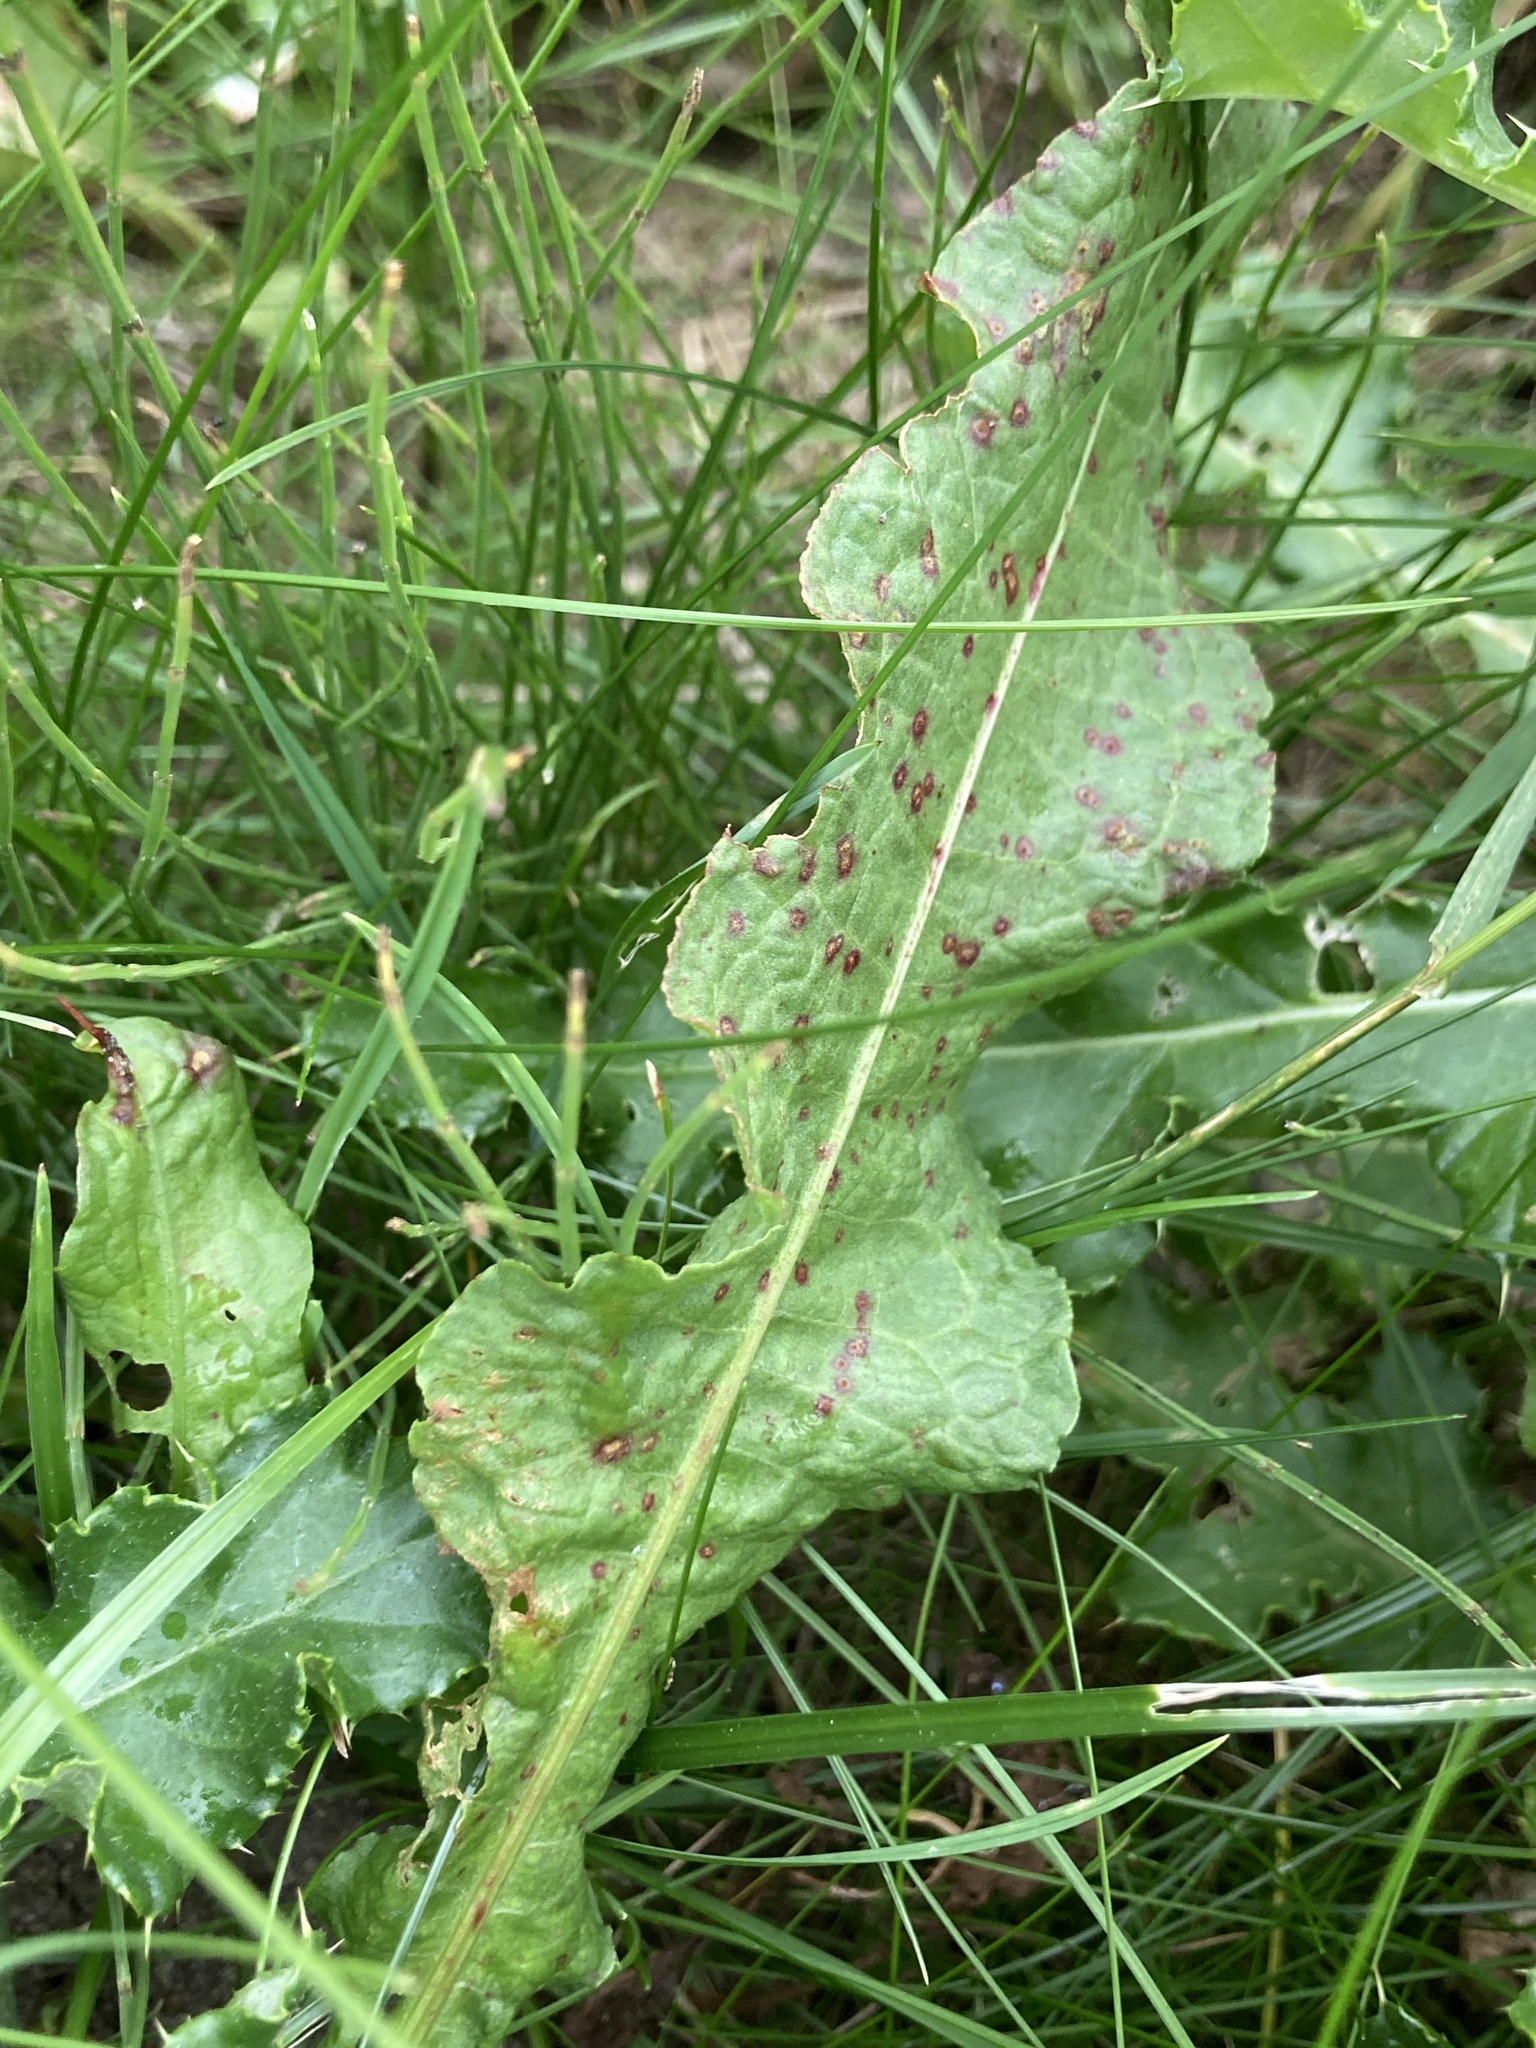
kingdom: Plantae
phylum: Tracheophyta
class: Magnoliopsida
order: Caryophyllales
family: Polygonaceae
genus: Rumex
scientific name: Rumex crispus
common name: Curled dock
